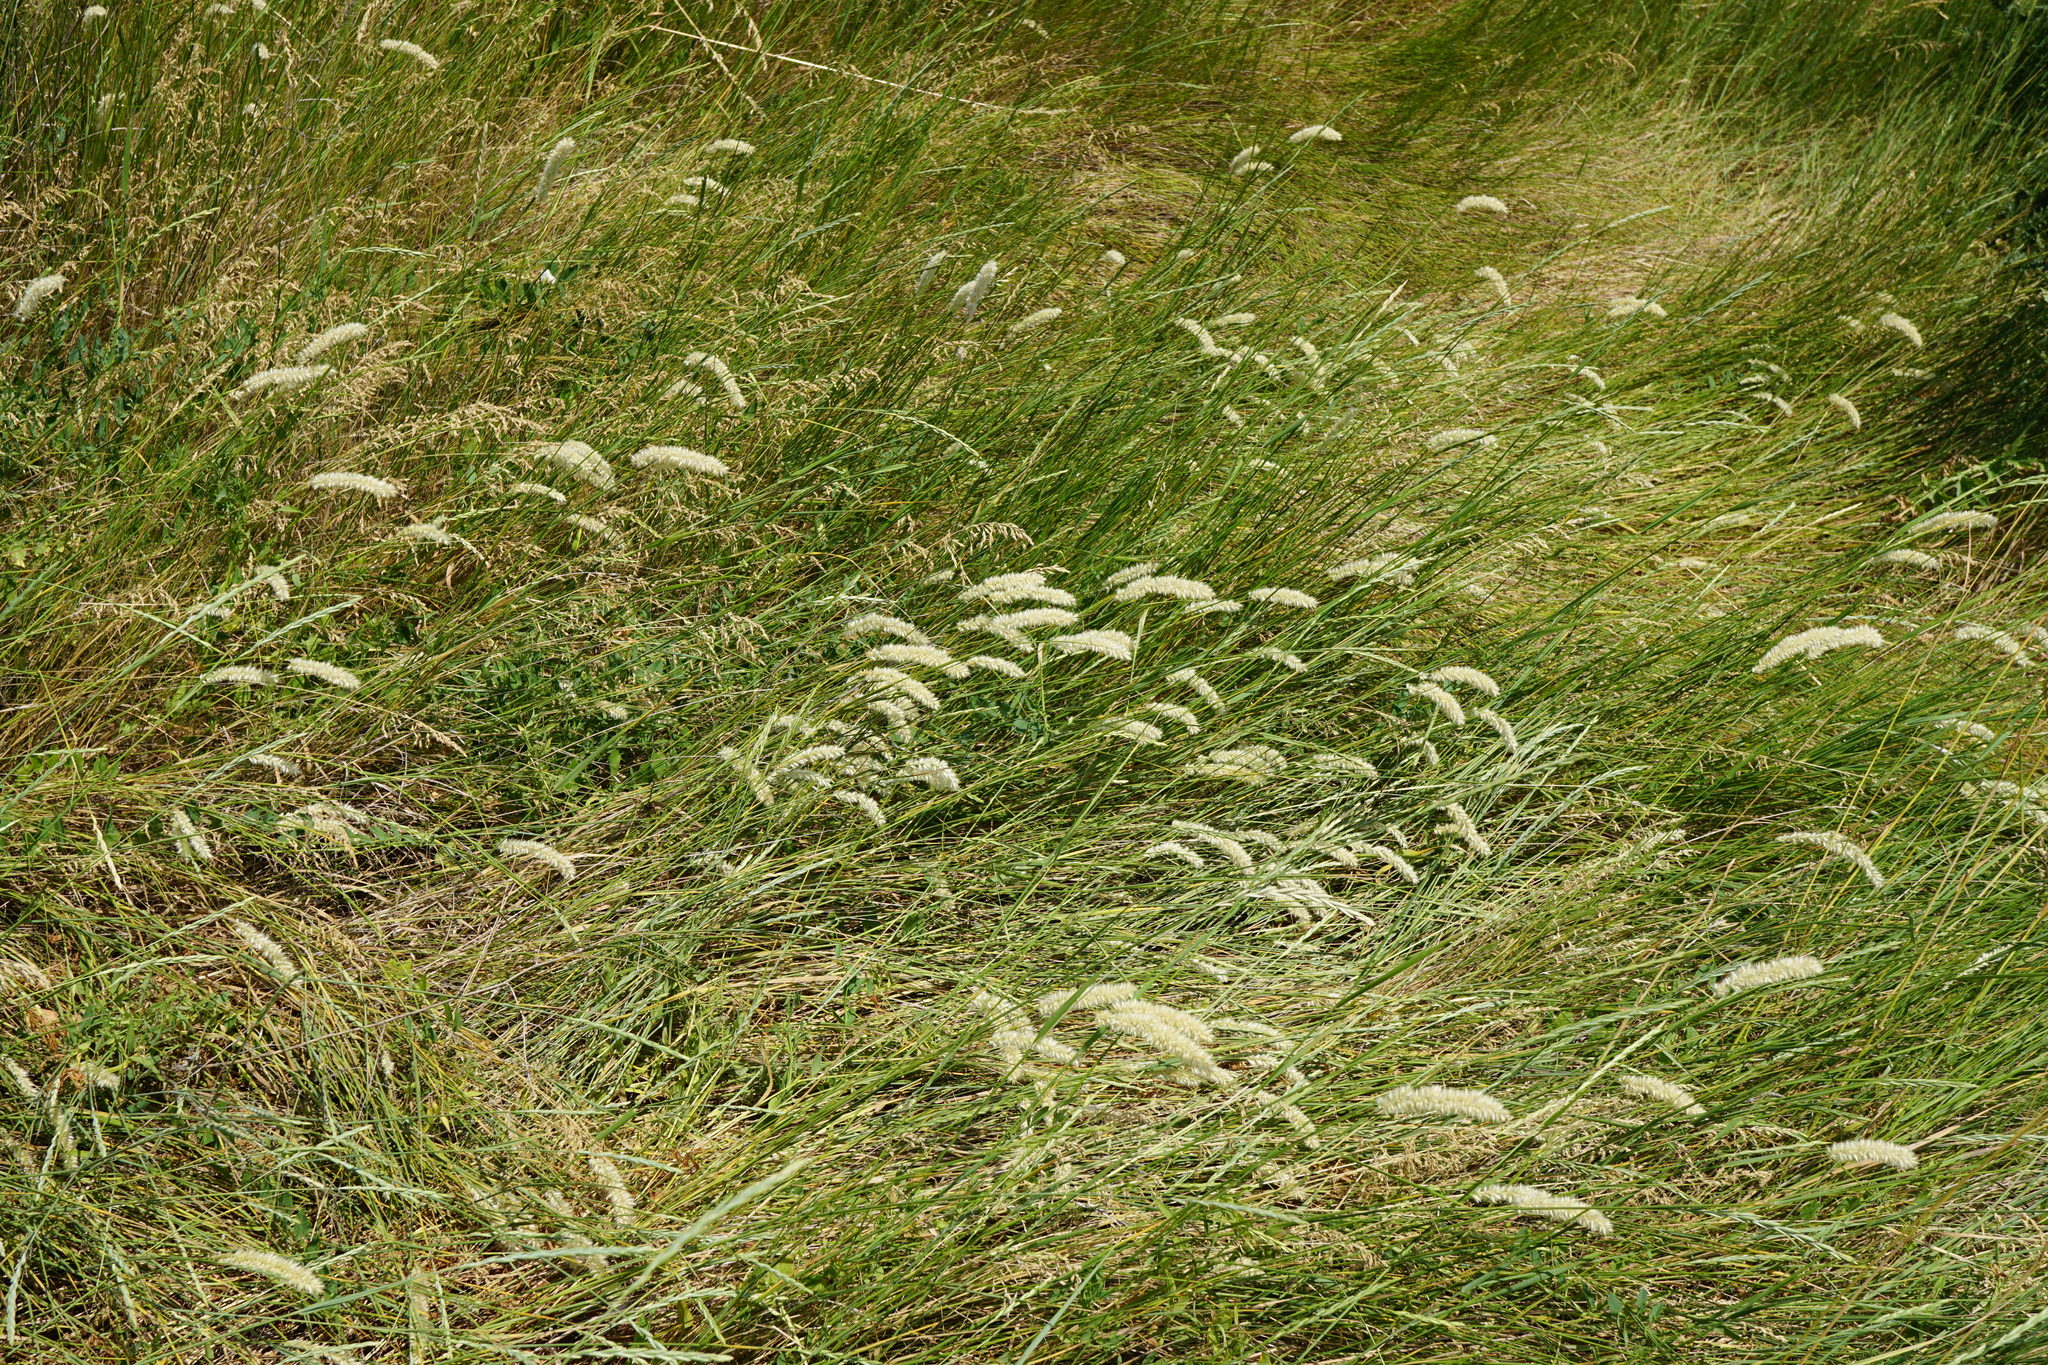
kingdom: Plantae
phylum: Tracheophyta
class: Liliopsida
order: Poales
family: Poaceae
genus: Melica
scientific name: Melica transsilvanica
